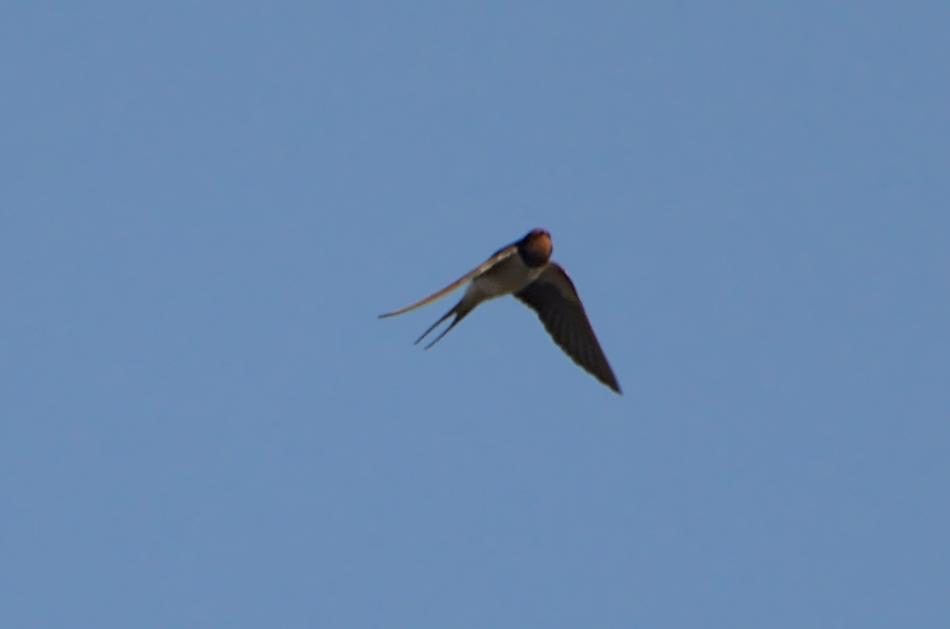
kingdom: Animalia
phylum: Chordata
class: Aves
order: Passeriformes
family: Hirundinidae
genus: Hirundo
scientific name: Hirundo rustica
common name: Barn swallow
